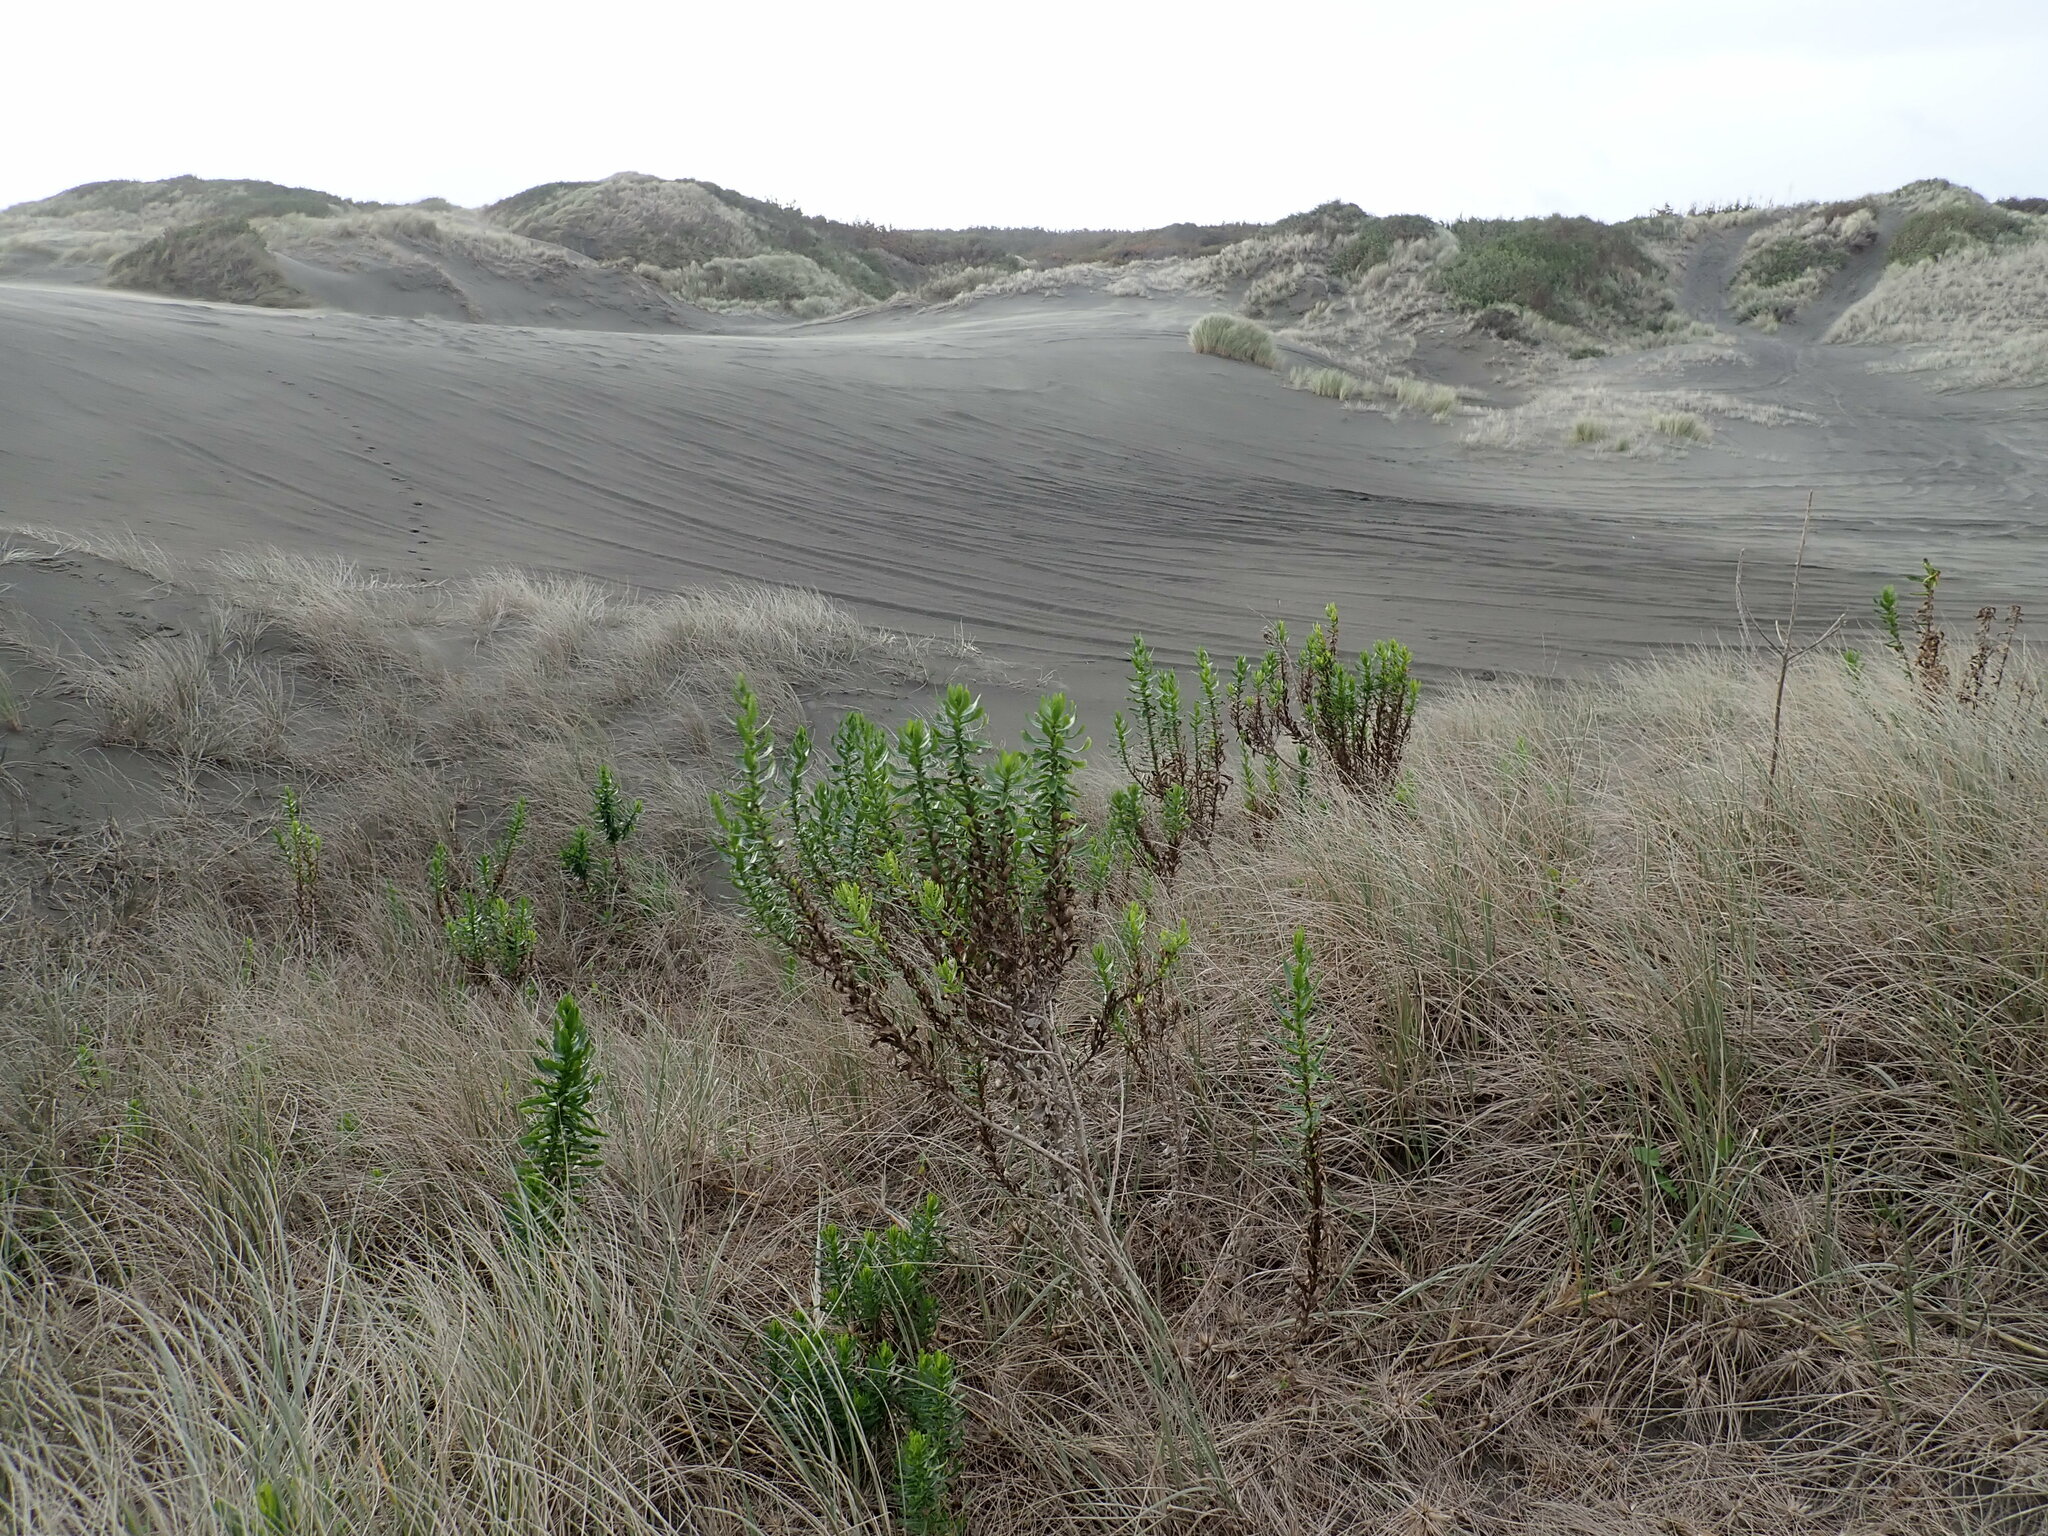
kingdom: Plantae
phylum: Tracheophyta
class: Magnoliopsida
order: Asterales
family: Asteraceae
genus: Senecio
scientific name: Senecio glastifolius
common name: Woad-leaved ragwort
